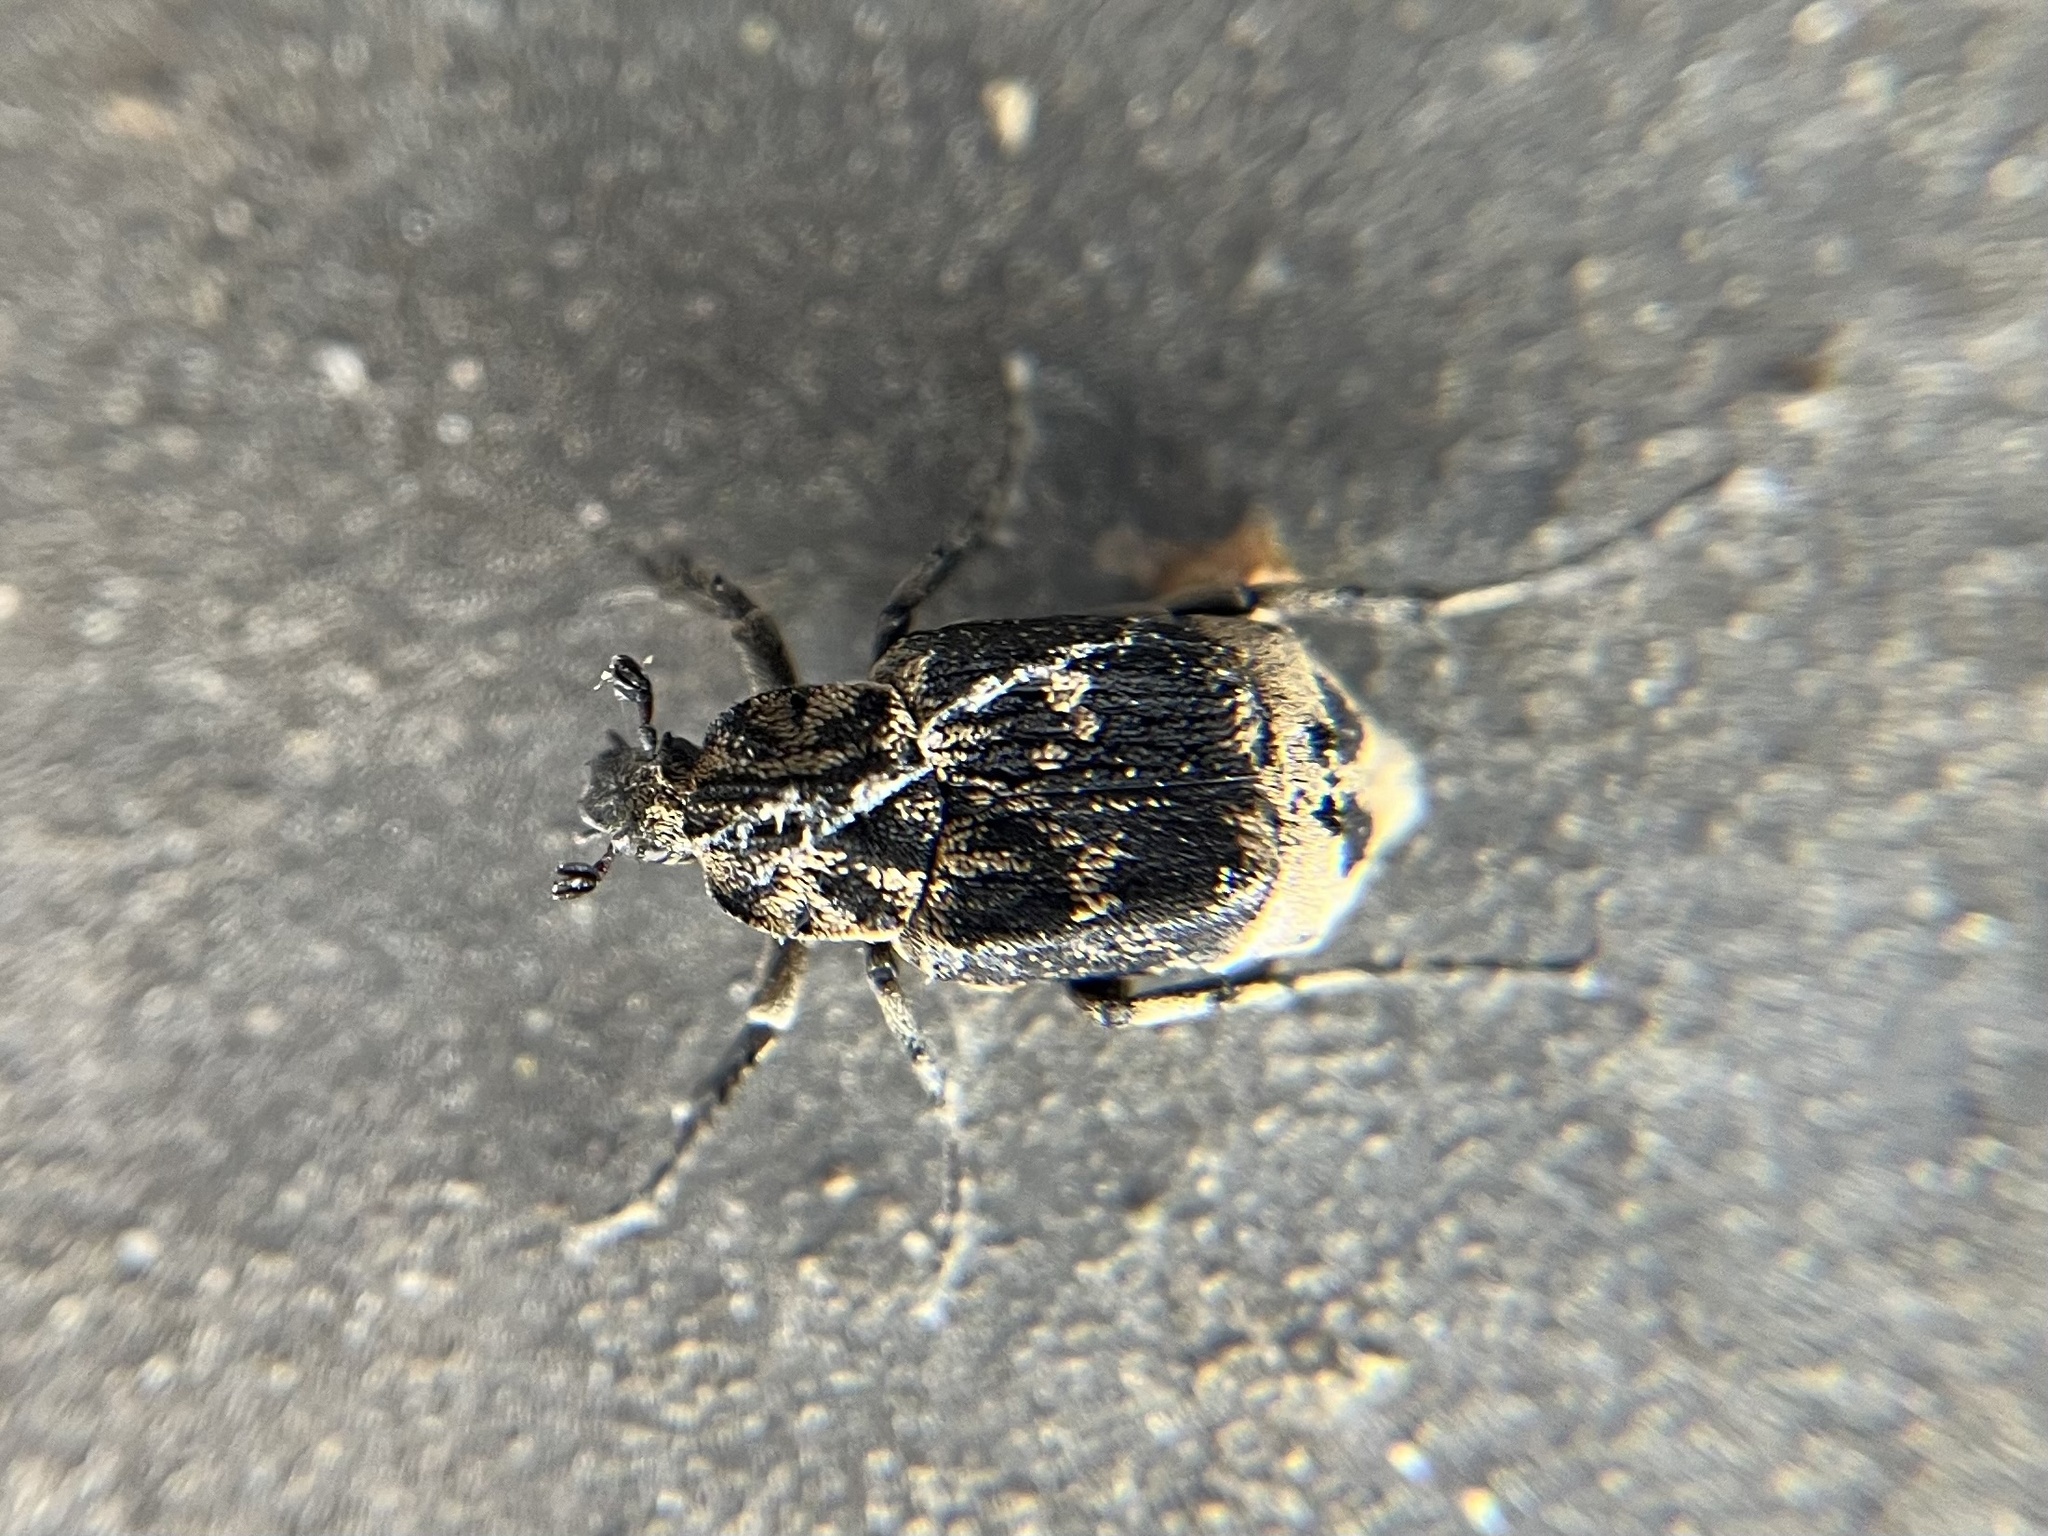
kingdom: Animalia
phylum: Arthropoda
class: Insecta
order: Coleoptera
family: Scarabaeidae
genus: Valgus
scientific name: Valgus hemipterus
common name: Bug flower chafer
